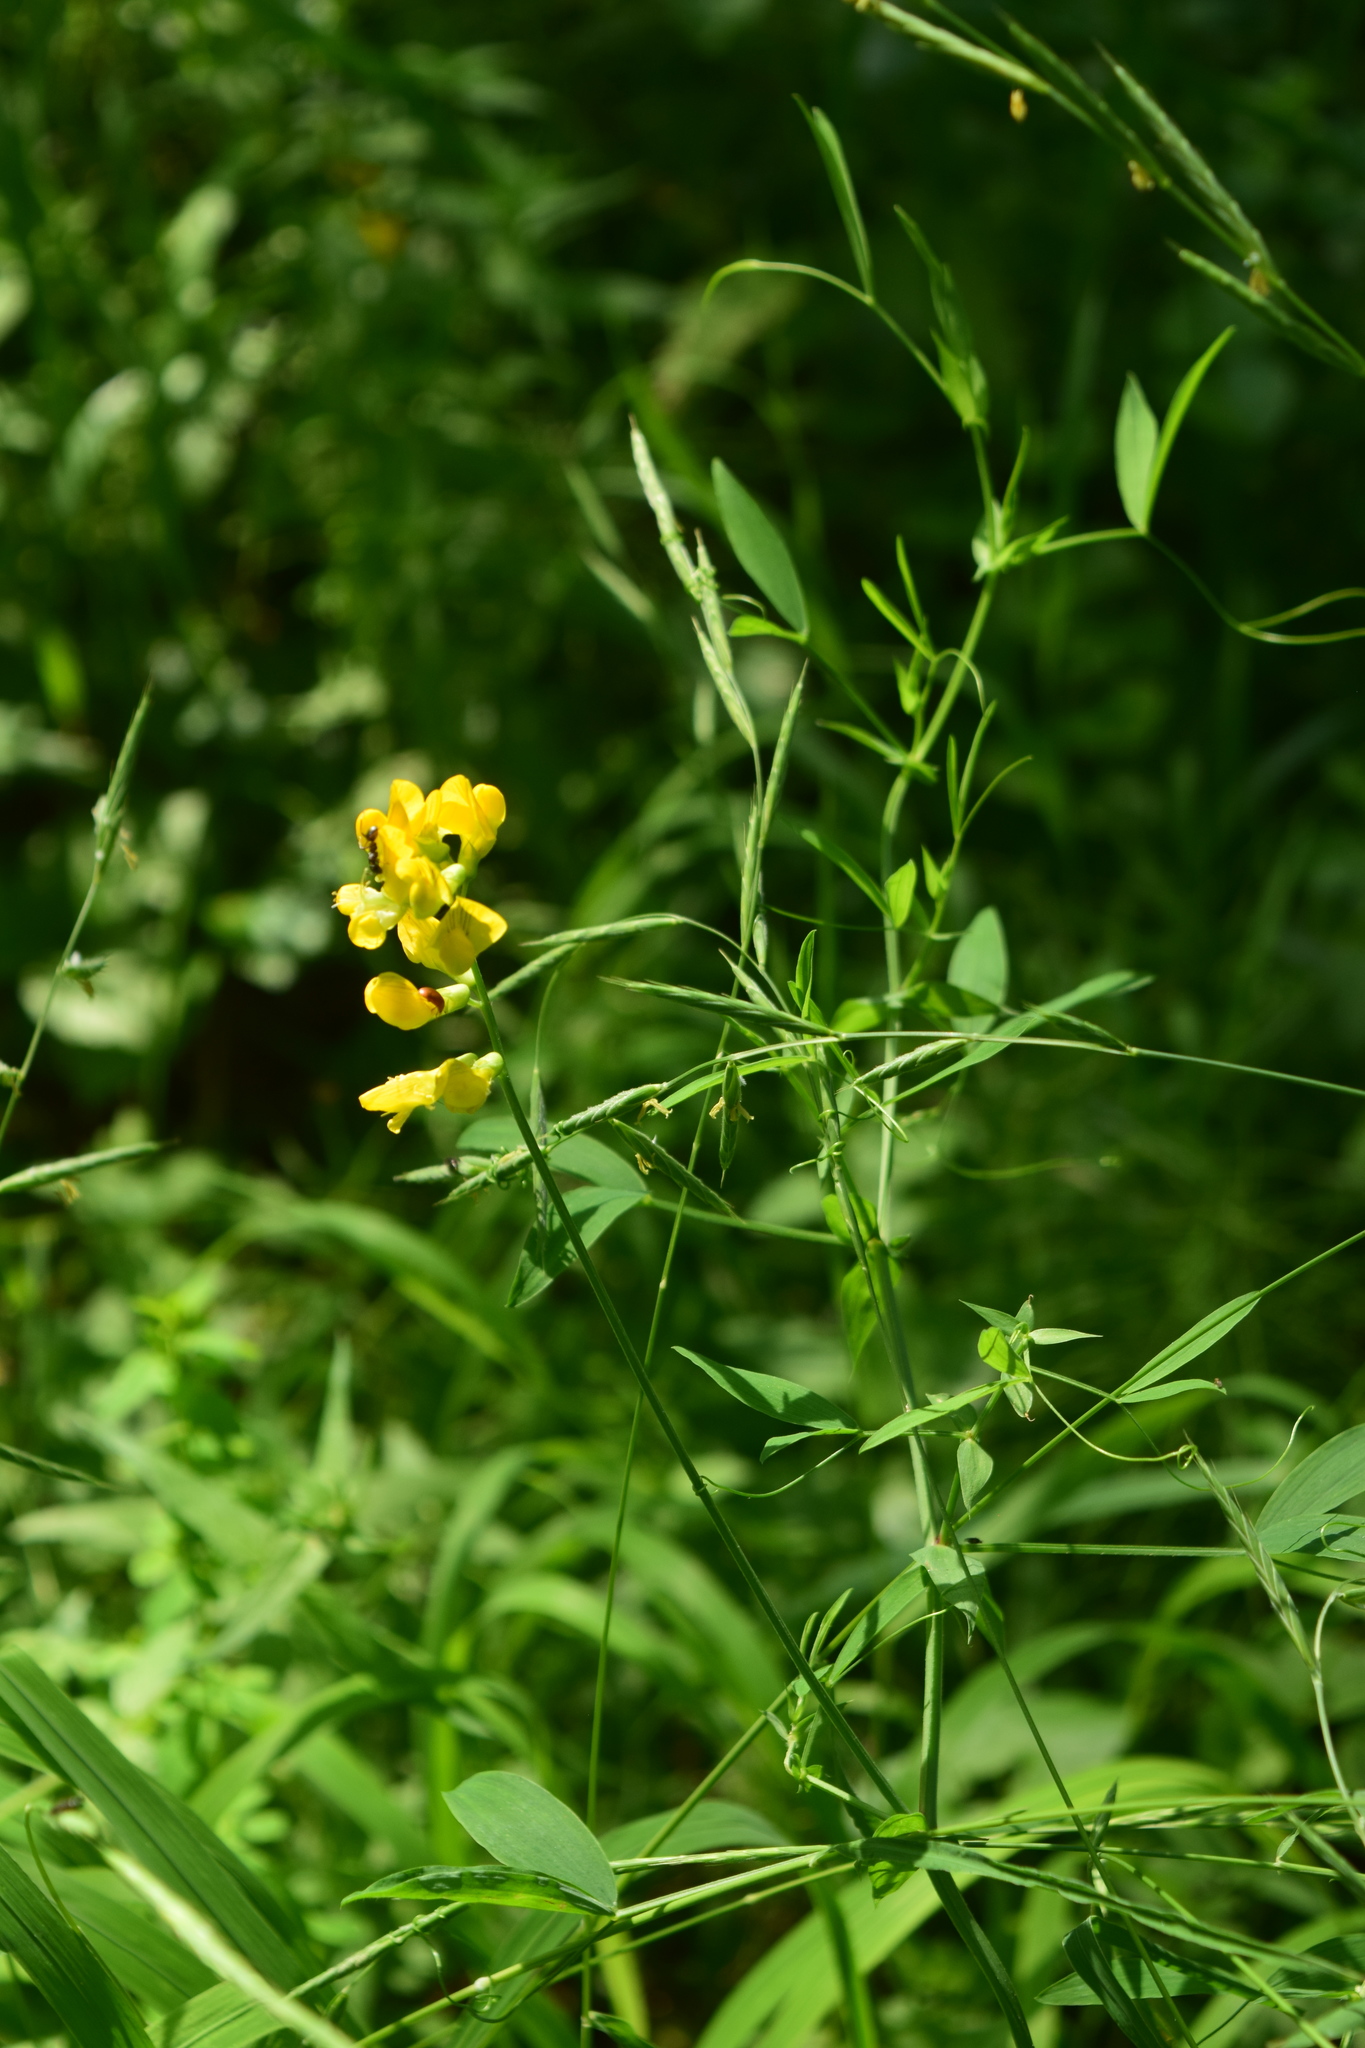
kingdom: Plantae
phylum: Tracheophyta
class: Magnoliopsida
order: Fabales
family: Fabaceae
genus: Lathyrus
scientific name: Lathyrus pratensis
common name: Meadow vetchling
